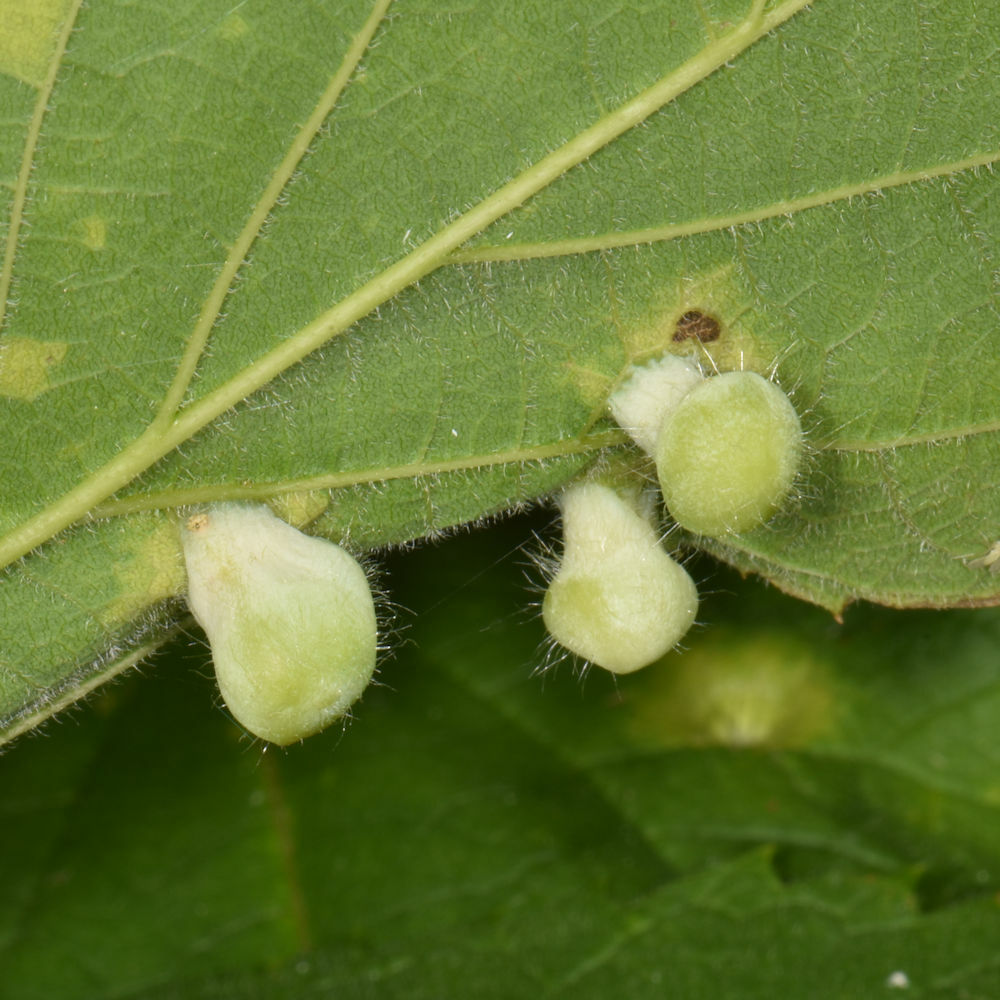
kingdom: Animalia
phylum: Arthropoda
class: Insecta
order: Hemiptera
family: Aphalaridae
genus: Pachypsylla
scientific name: Pachypsylla celtidismamma
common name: Hackberry nipplegall psyllid
